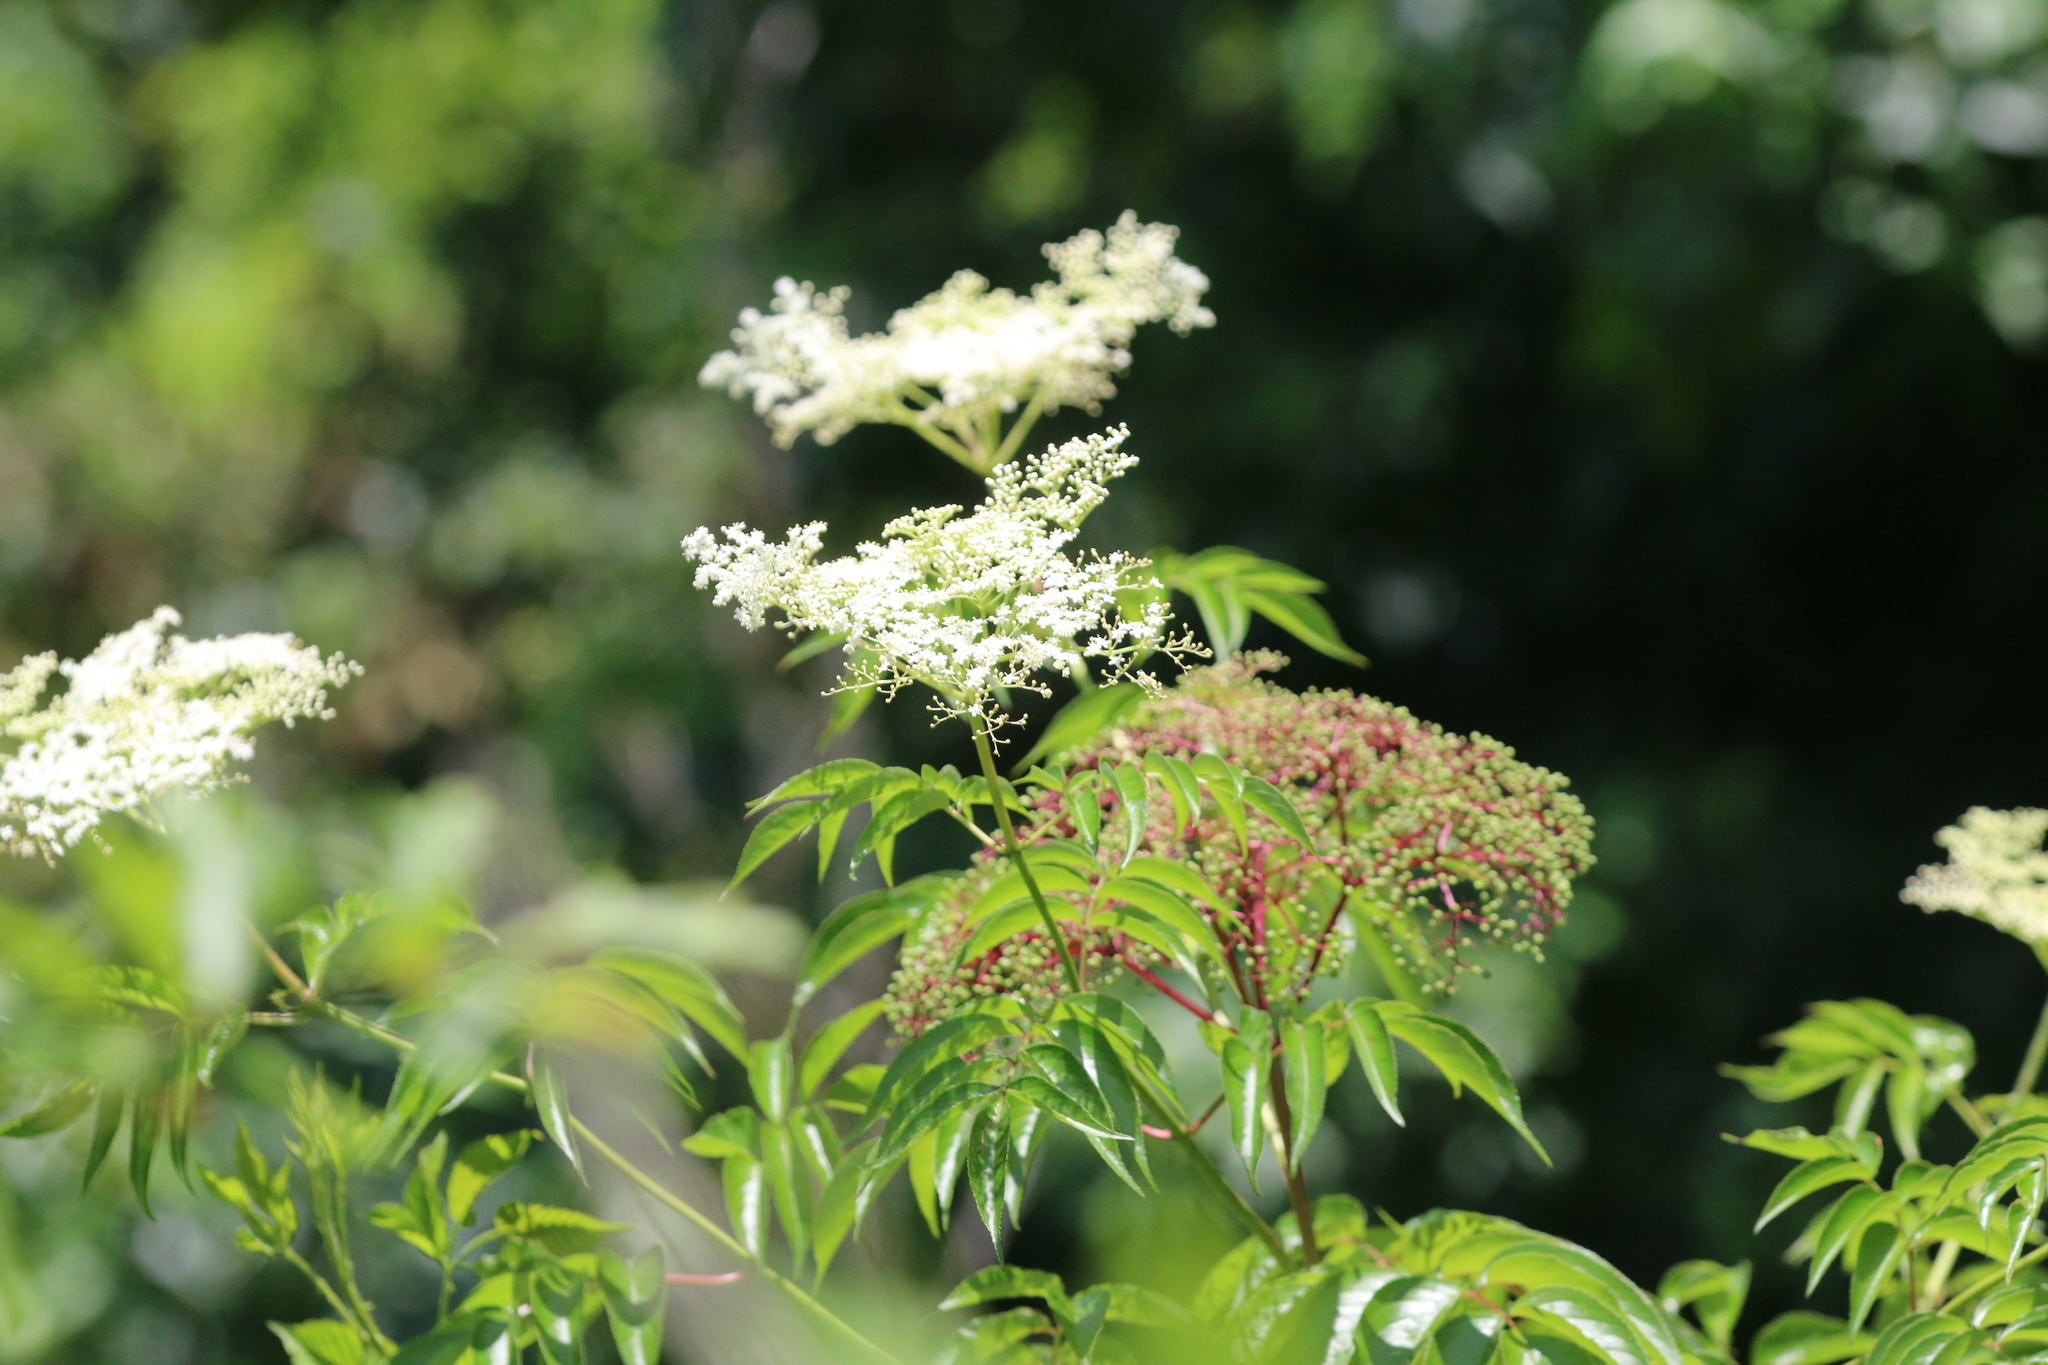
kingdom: Plantae
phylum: Tracheophyta
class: Magnoliopsida
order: Dipsacales
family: Viburnaceae
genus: Sambucus
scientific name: Sambucus canadensis
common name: American elder
